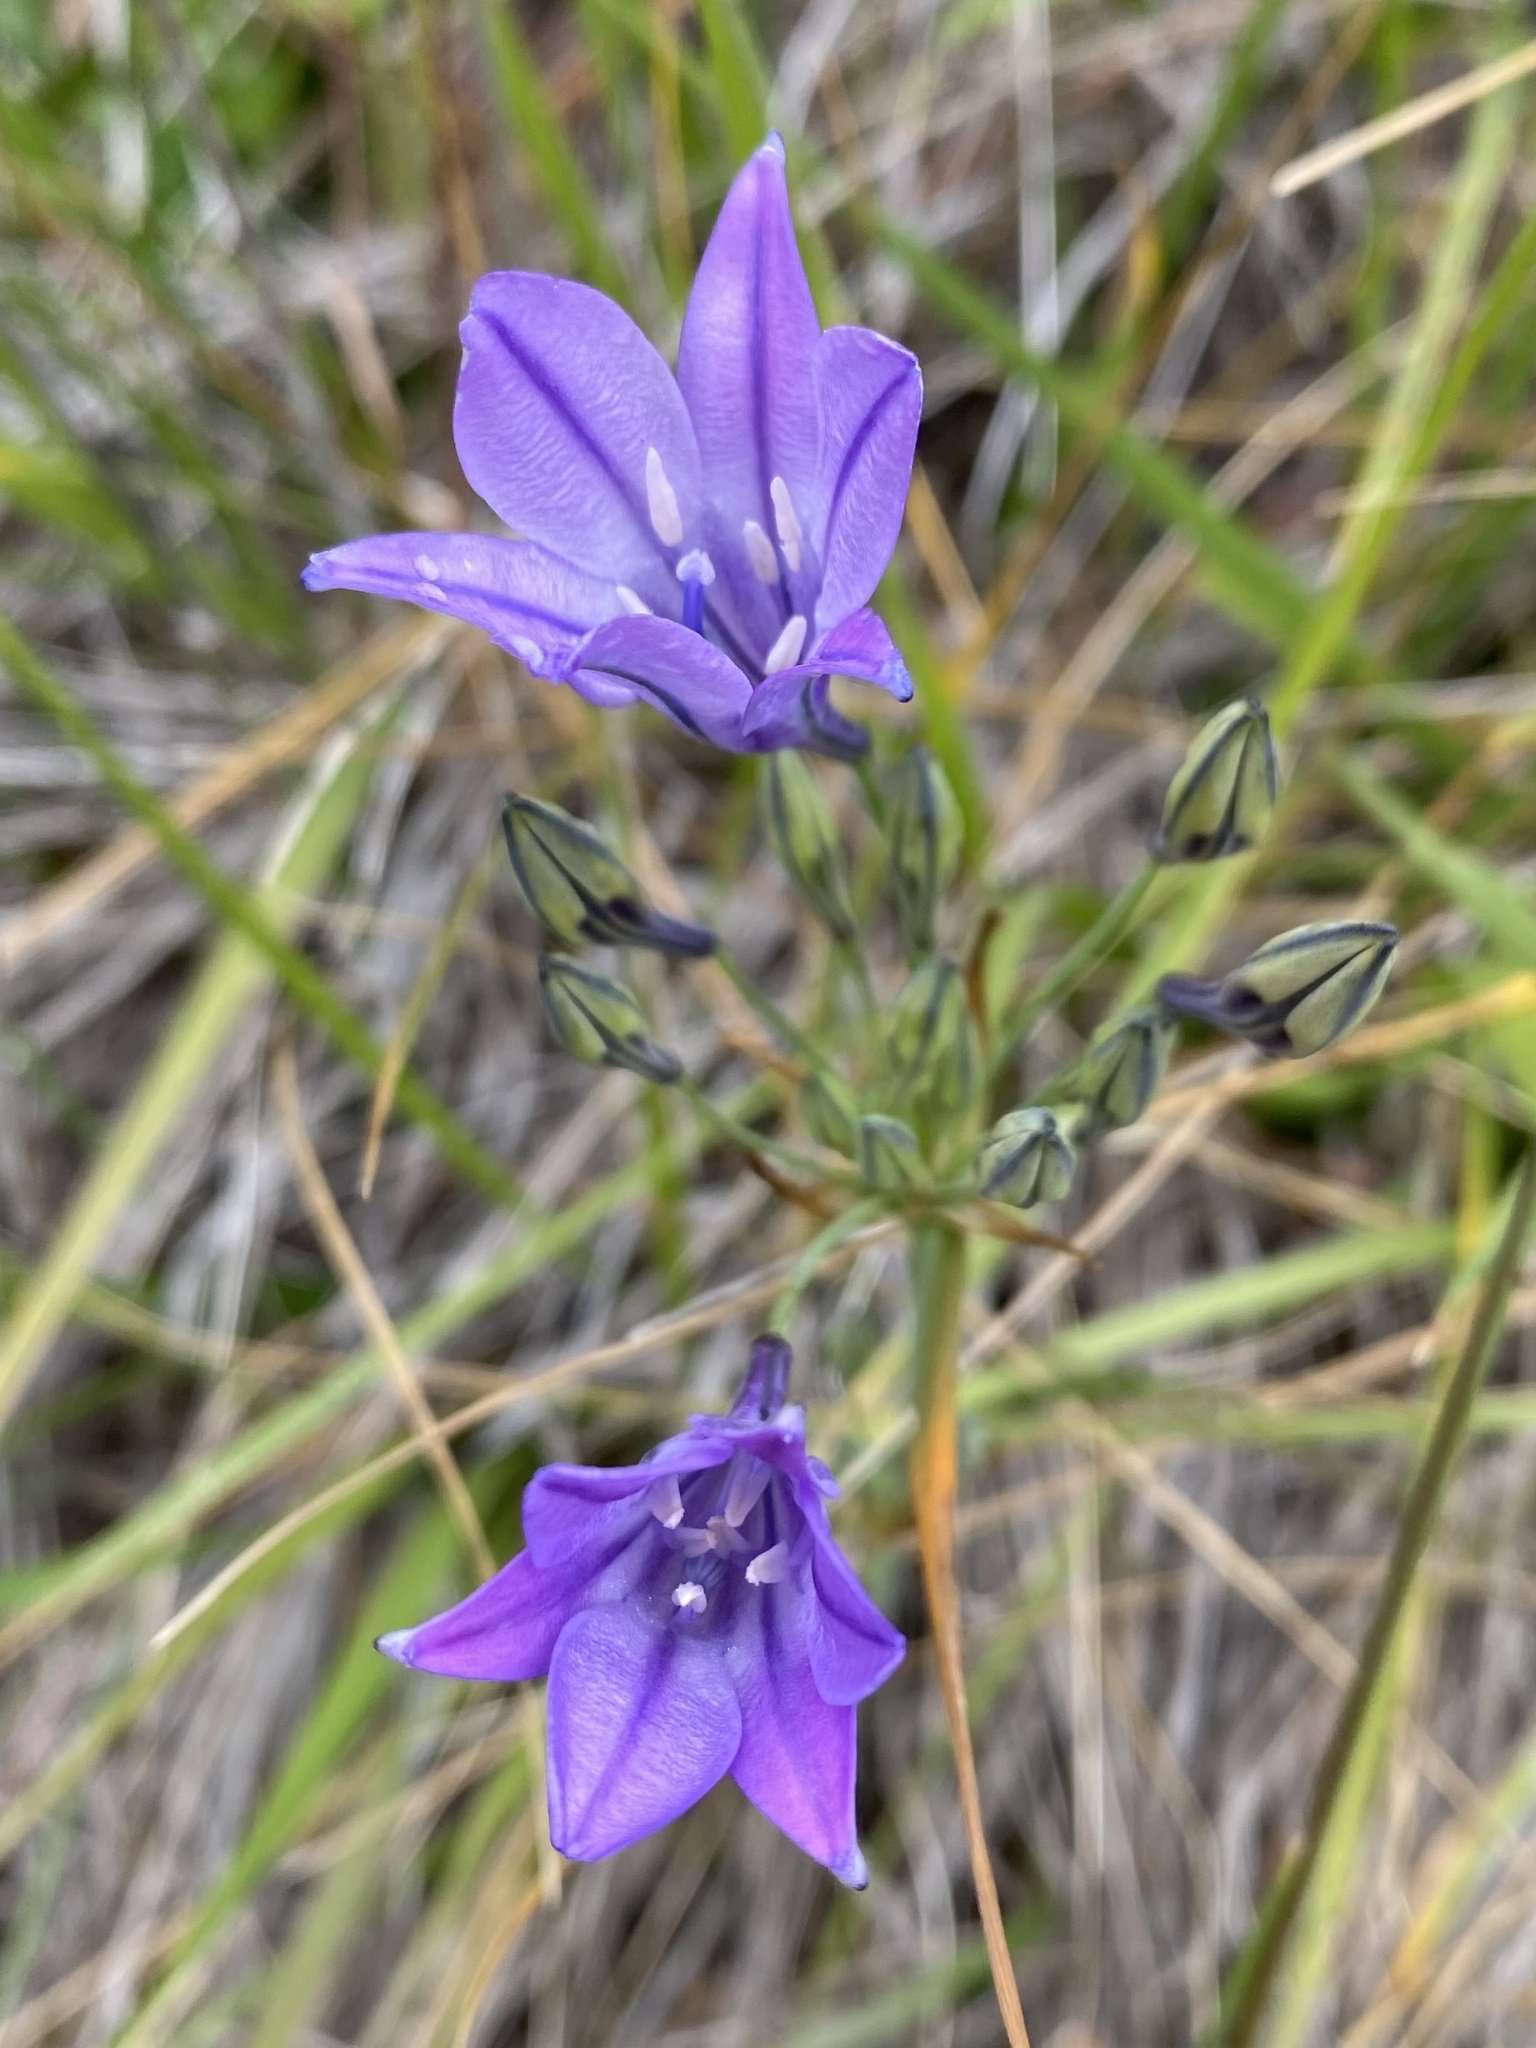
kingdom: Plantae
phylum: Tracheophyta
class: Liliopsida
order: Asparagales
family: Asparagaceae
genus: Triteleia
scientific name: Triteleia laxa
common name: Triplet-lily
